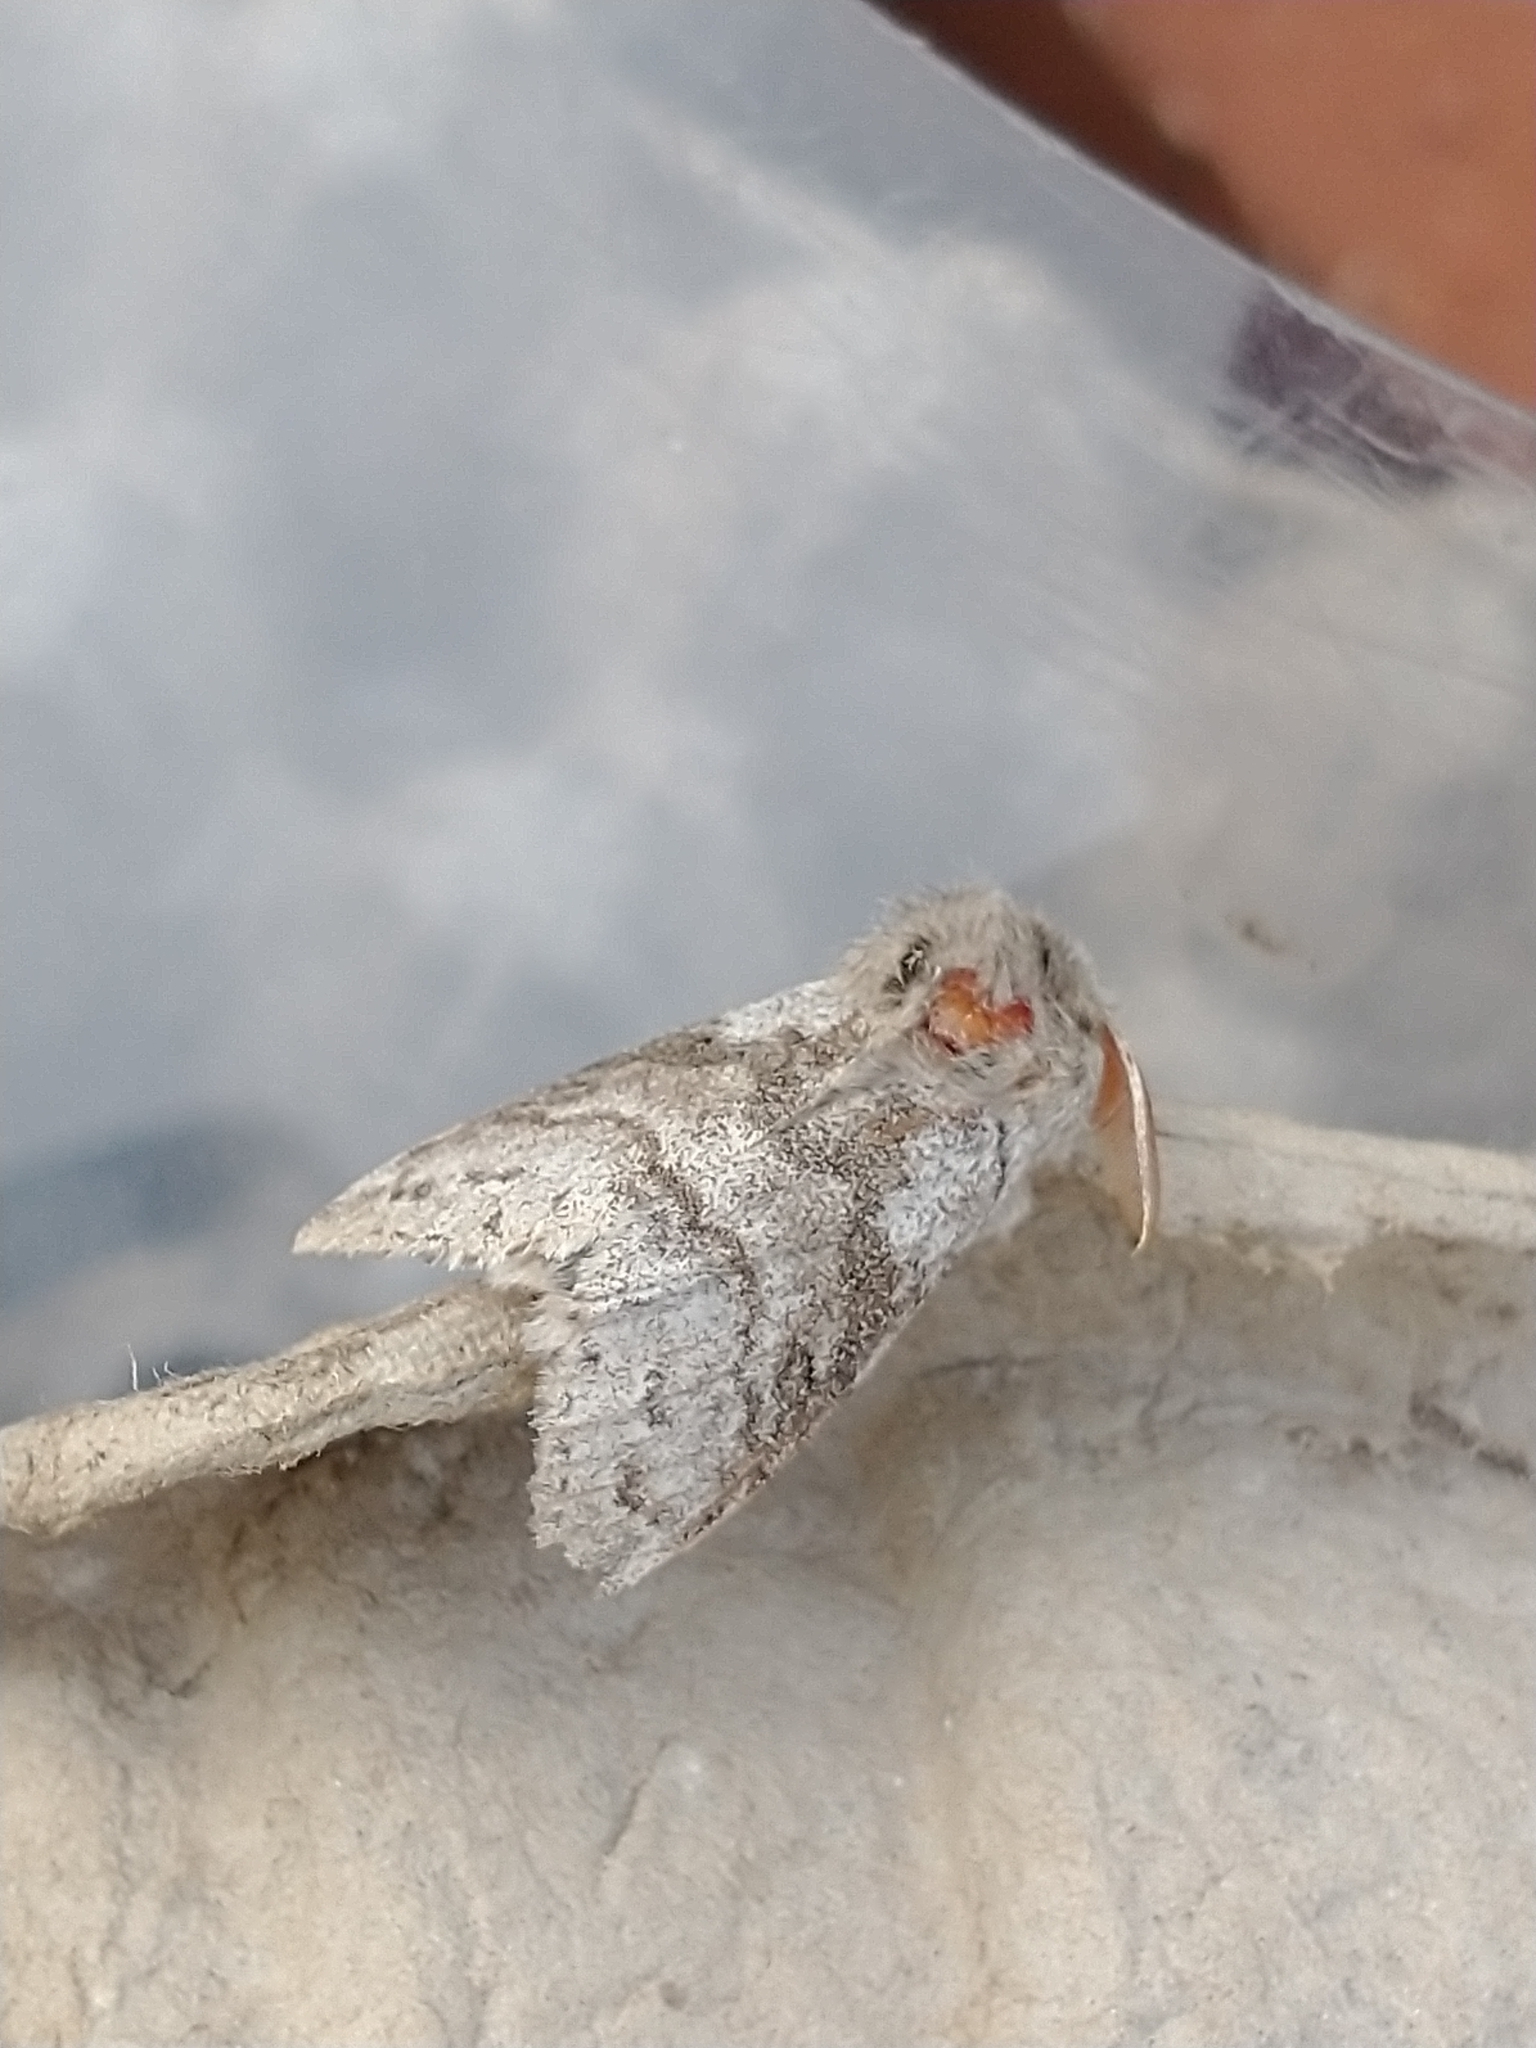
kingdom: Animalia
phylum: Arthropoda
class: Insecta
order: Lepidoptera
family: Erebidae
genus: Calliteara
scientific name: Calliteara pudibunda
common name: Pale tussock
